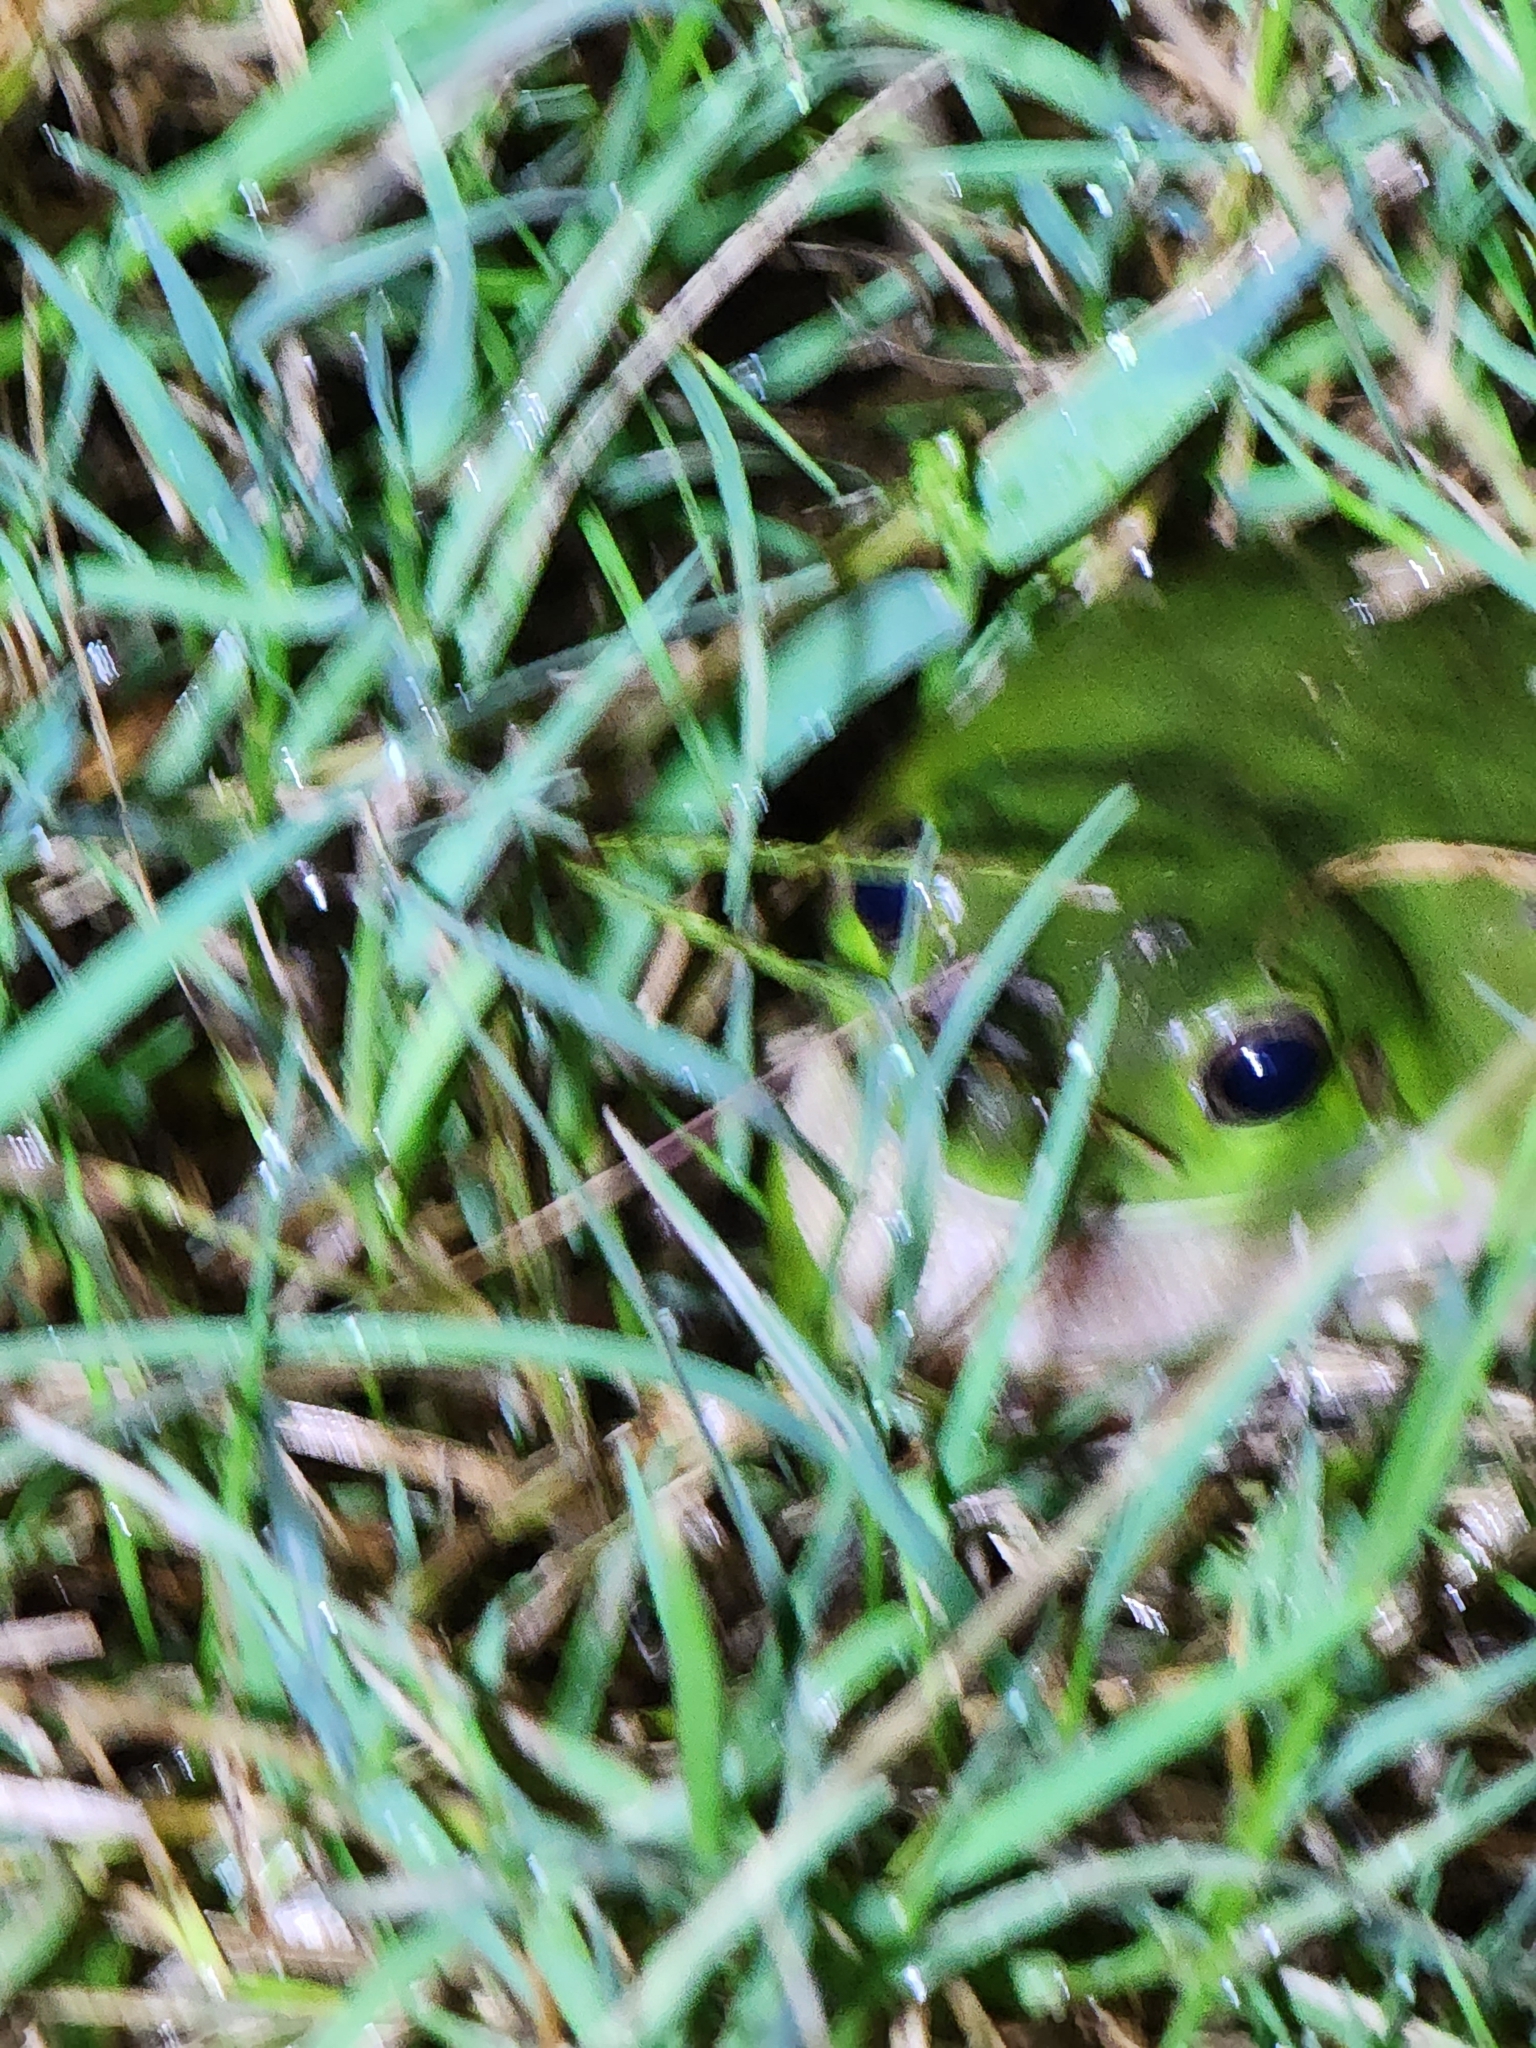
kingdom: Animalia
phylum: Chordata
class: Amphibia
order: Anura
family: Pelodryadidae
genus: Ranoidea
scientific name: Ranoidea caerulea
